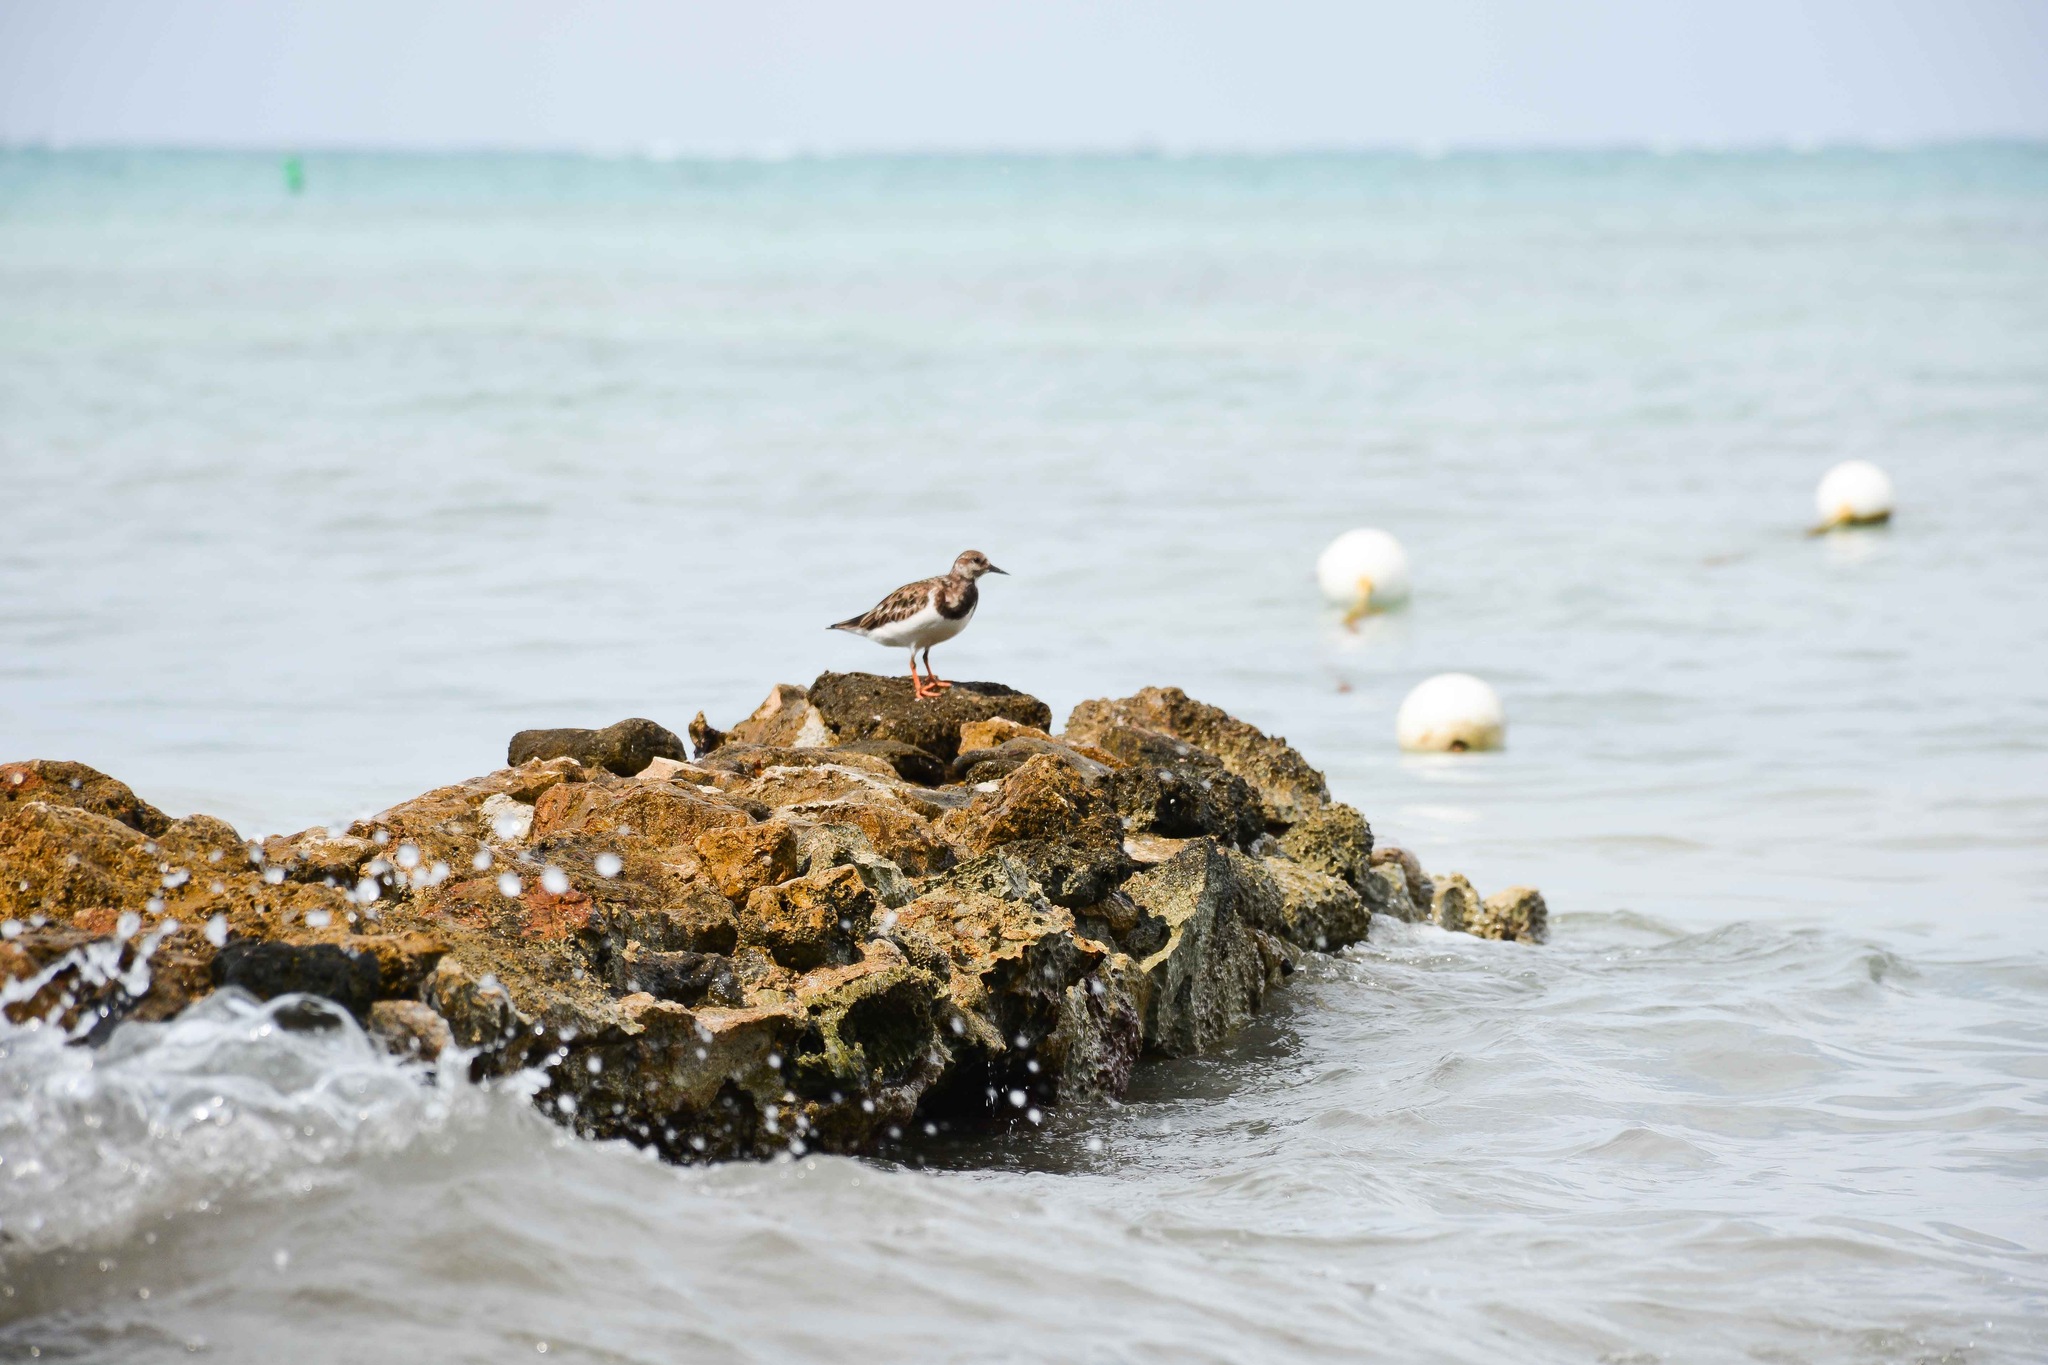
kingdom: Animalia
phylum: Chordata
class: Aves
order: Charadriiformes
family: Scolopacidae
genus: Arenaria
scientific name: Arenaria interpres
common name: Ruddy turnstone
